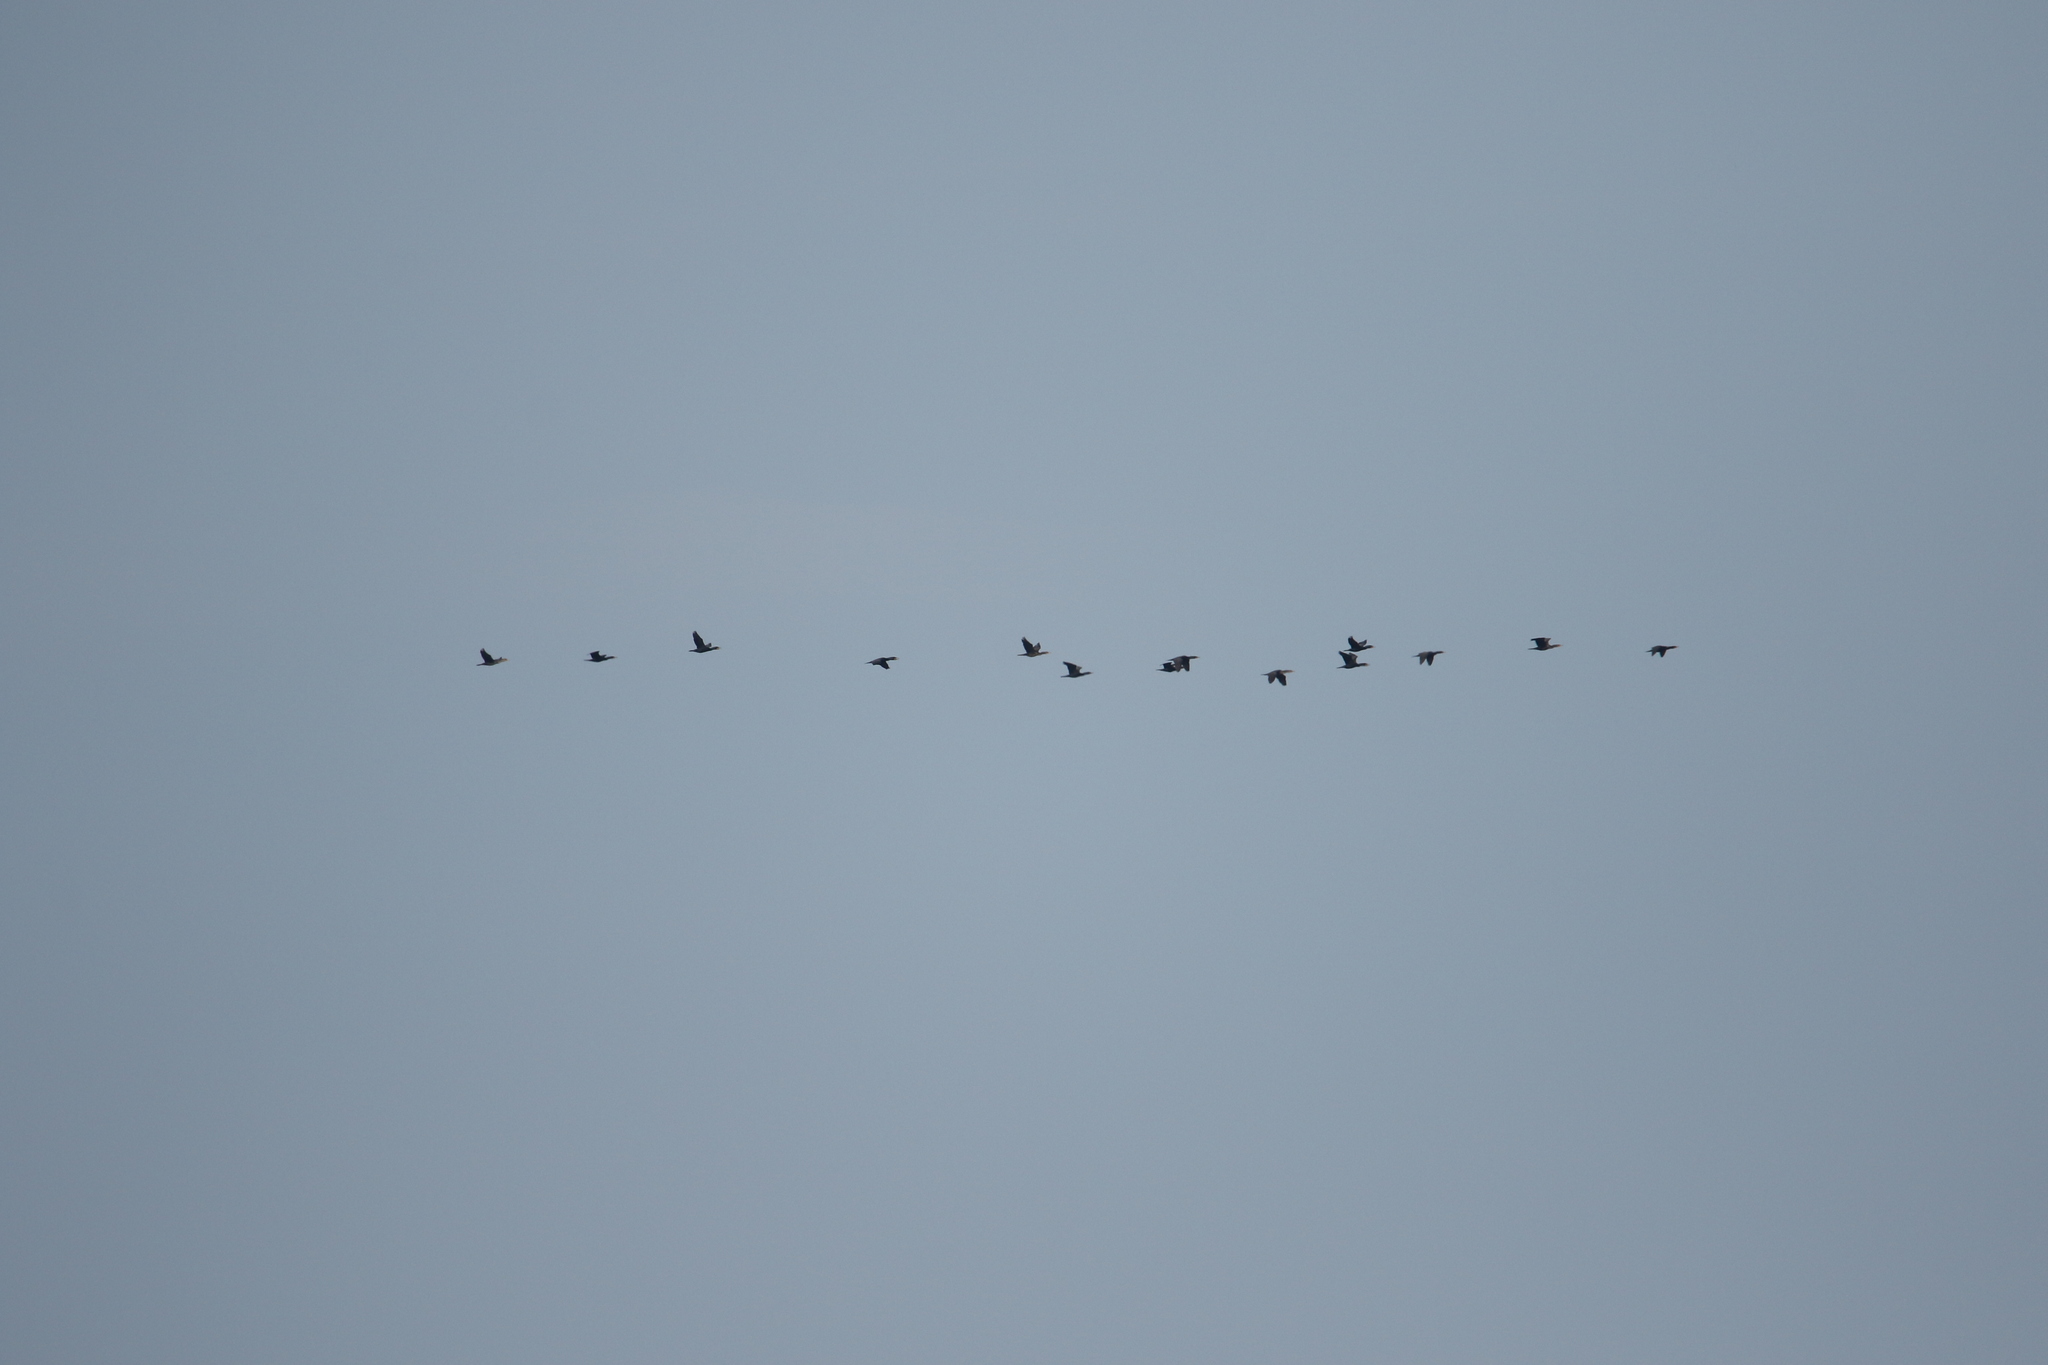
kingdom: Animalia
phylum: Chordata
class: Aves
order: Suliformes
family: Phalacrocoracidae
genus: Phalacrocorax
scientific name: Phalacrocorax auritus
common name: Double-crested cormorant
